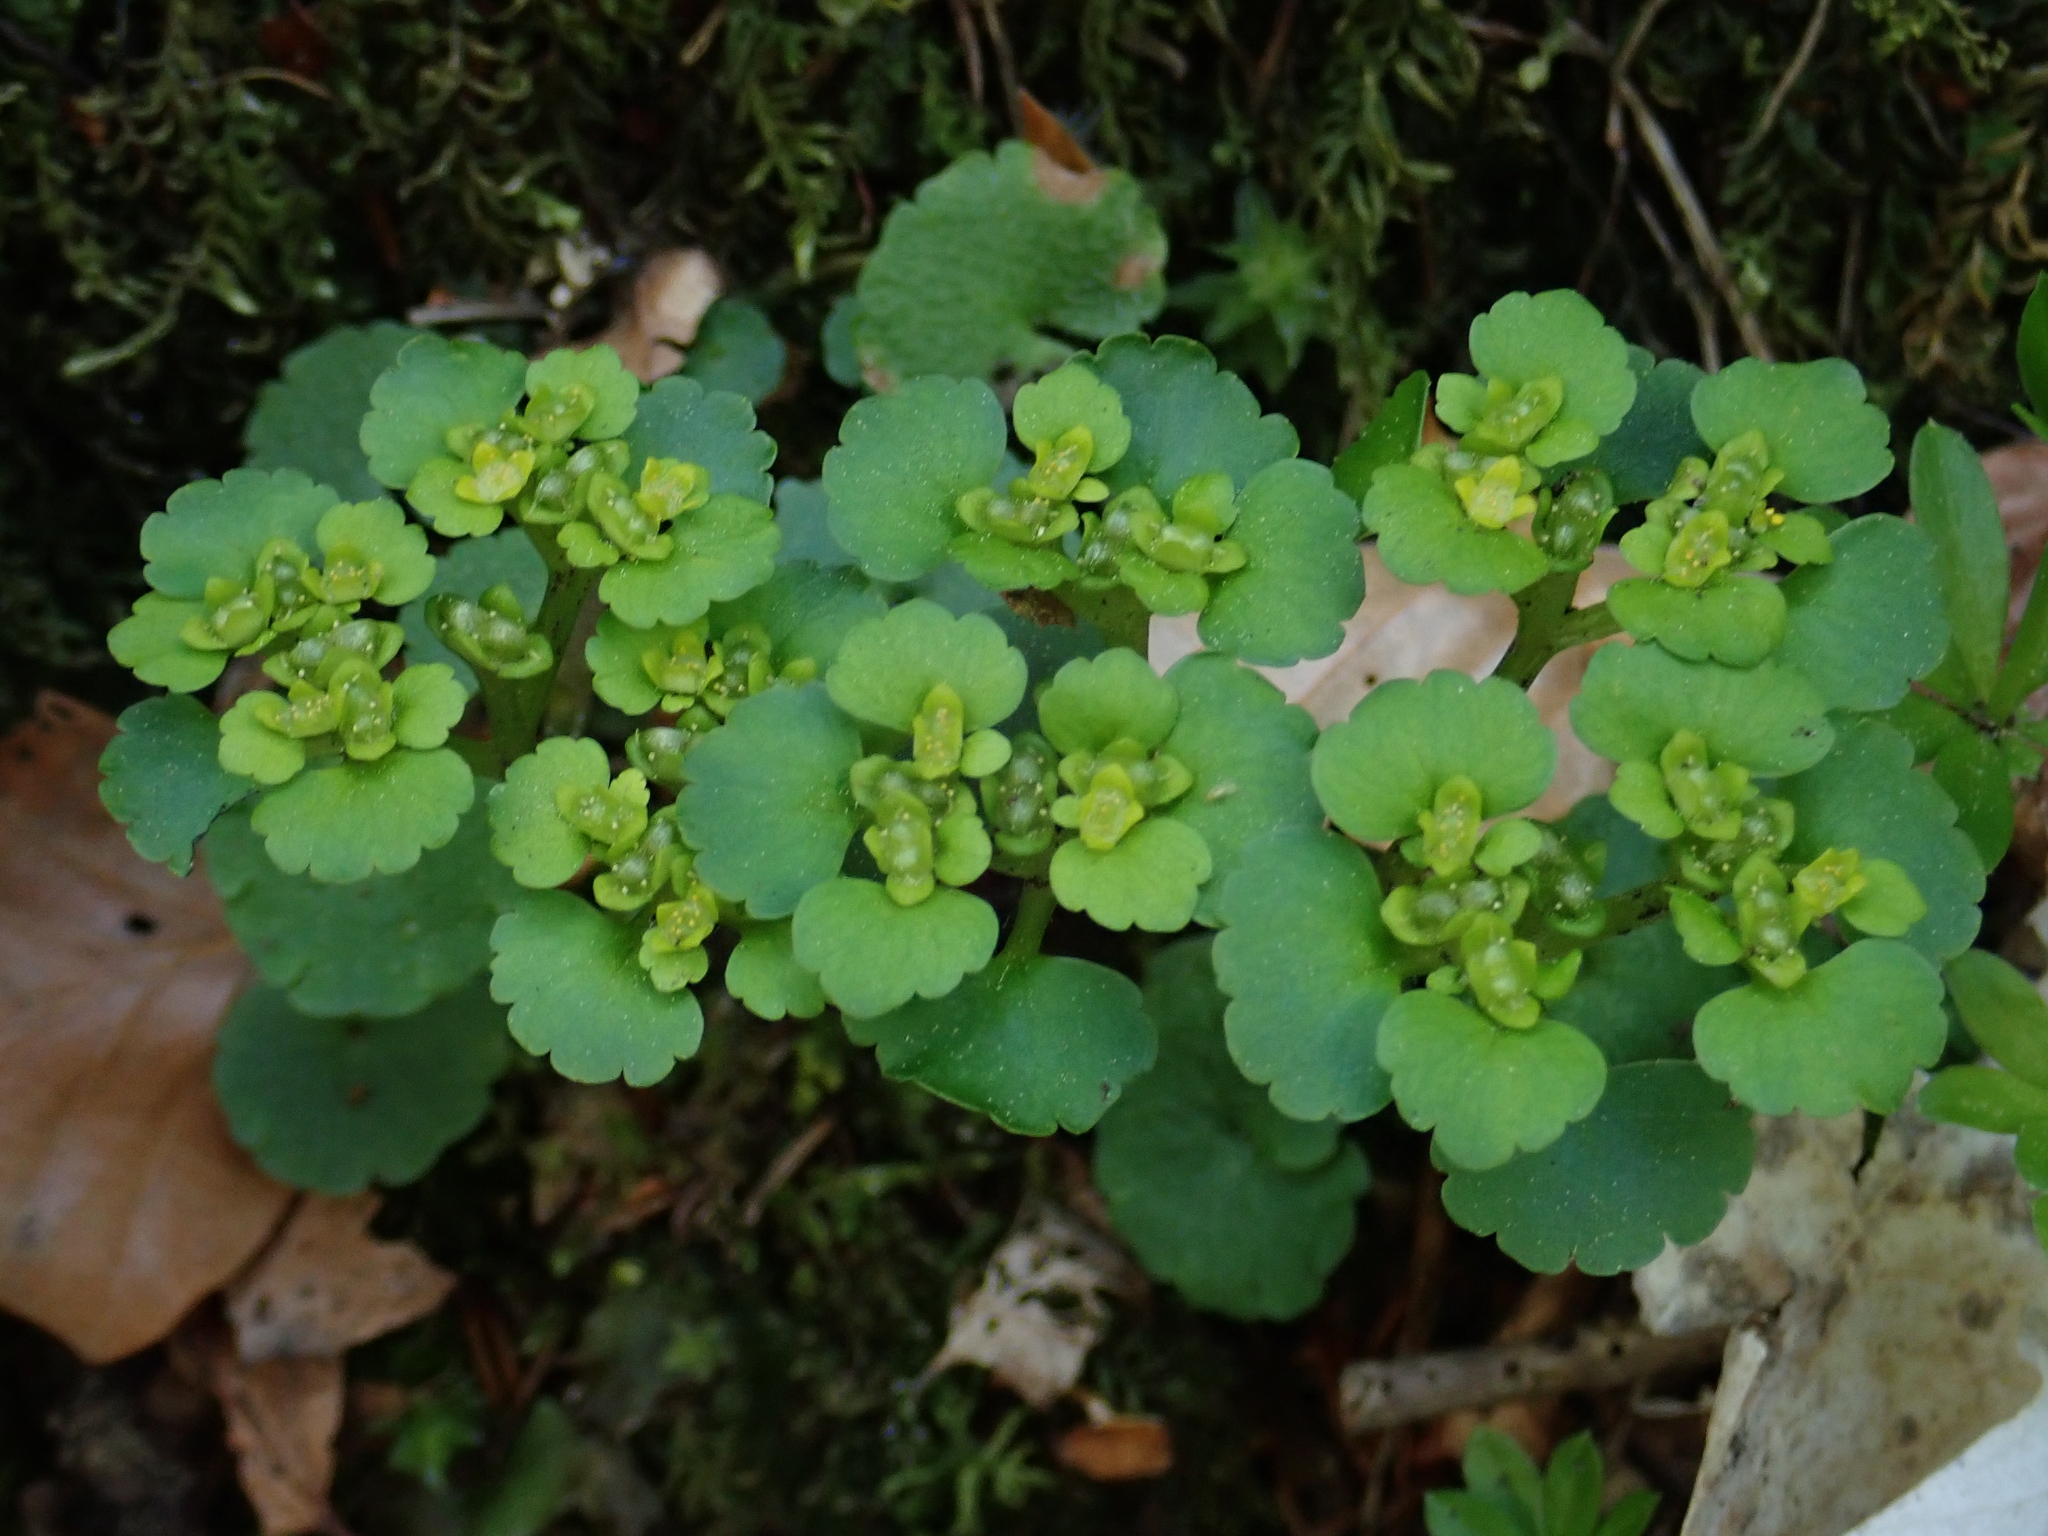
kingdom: Plantae
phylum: Tracheophyta
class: Magnoliopsida
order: Saxifragales
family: Saxifragaceae
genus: Chrysosplenium
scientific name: Chrysosplenium alternifolium
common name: Alternate-leaved golden-saxifrage
